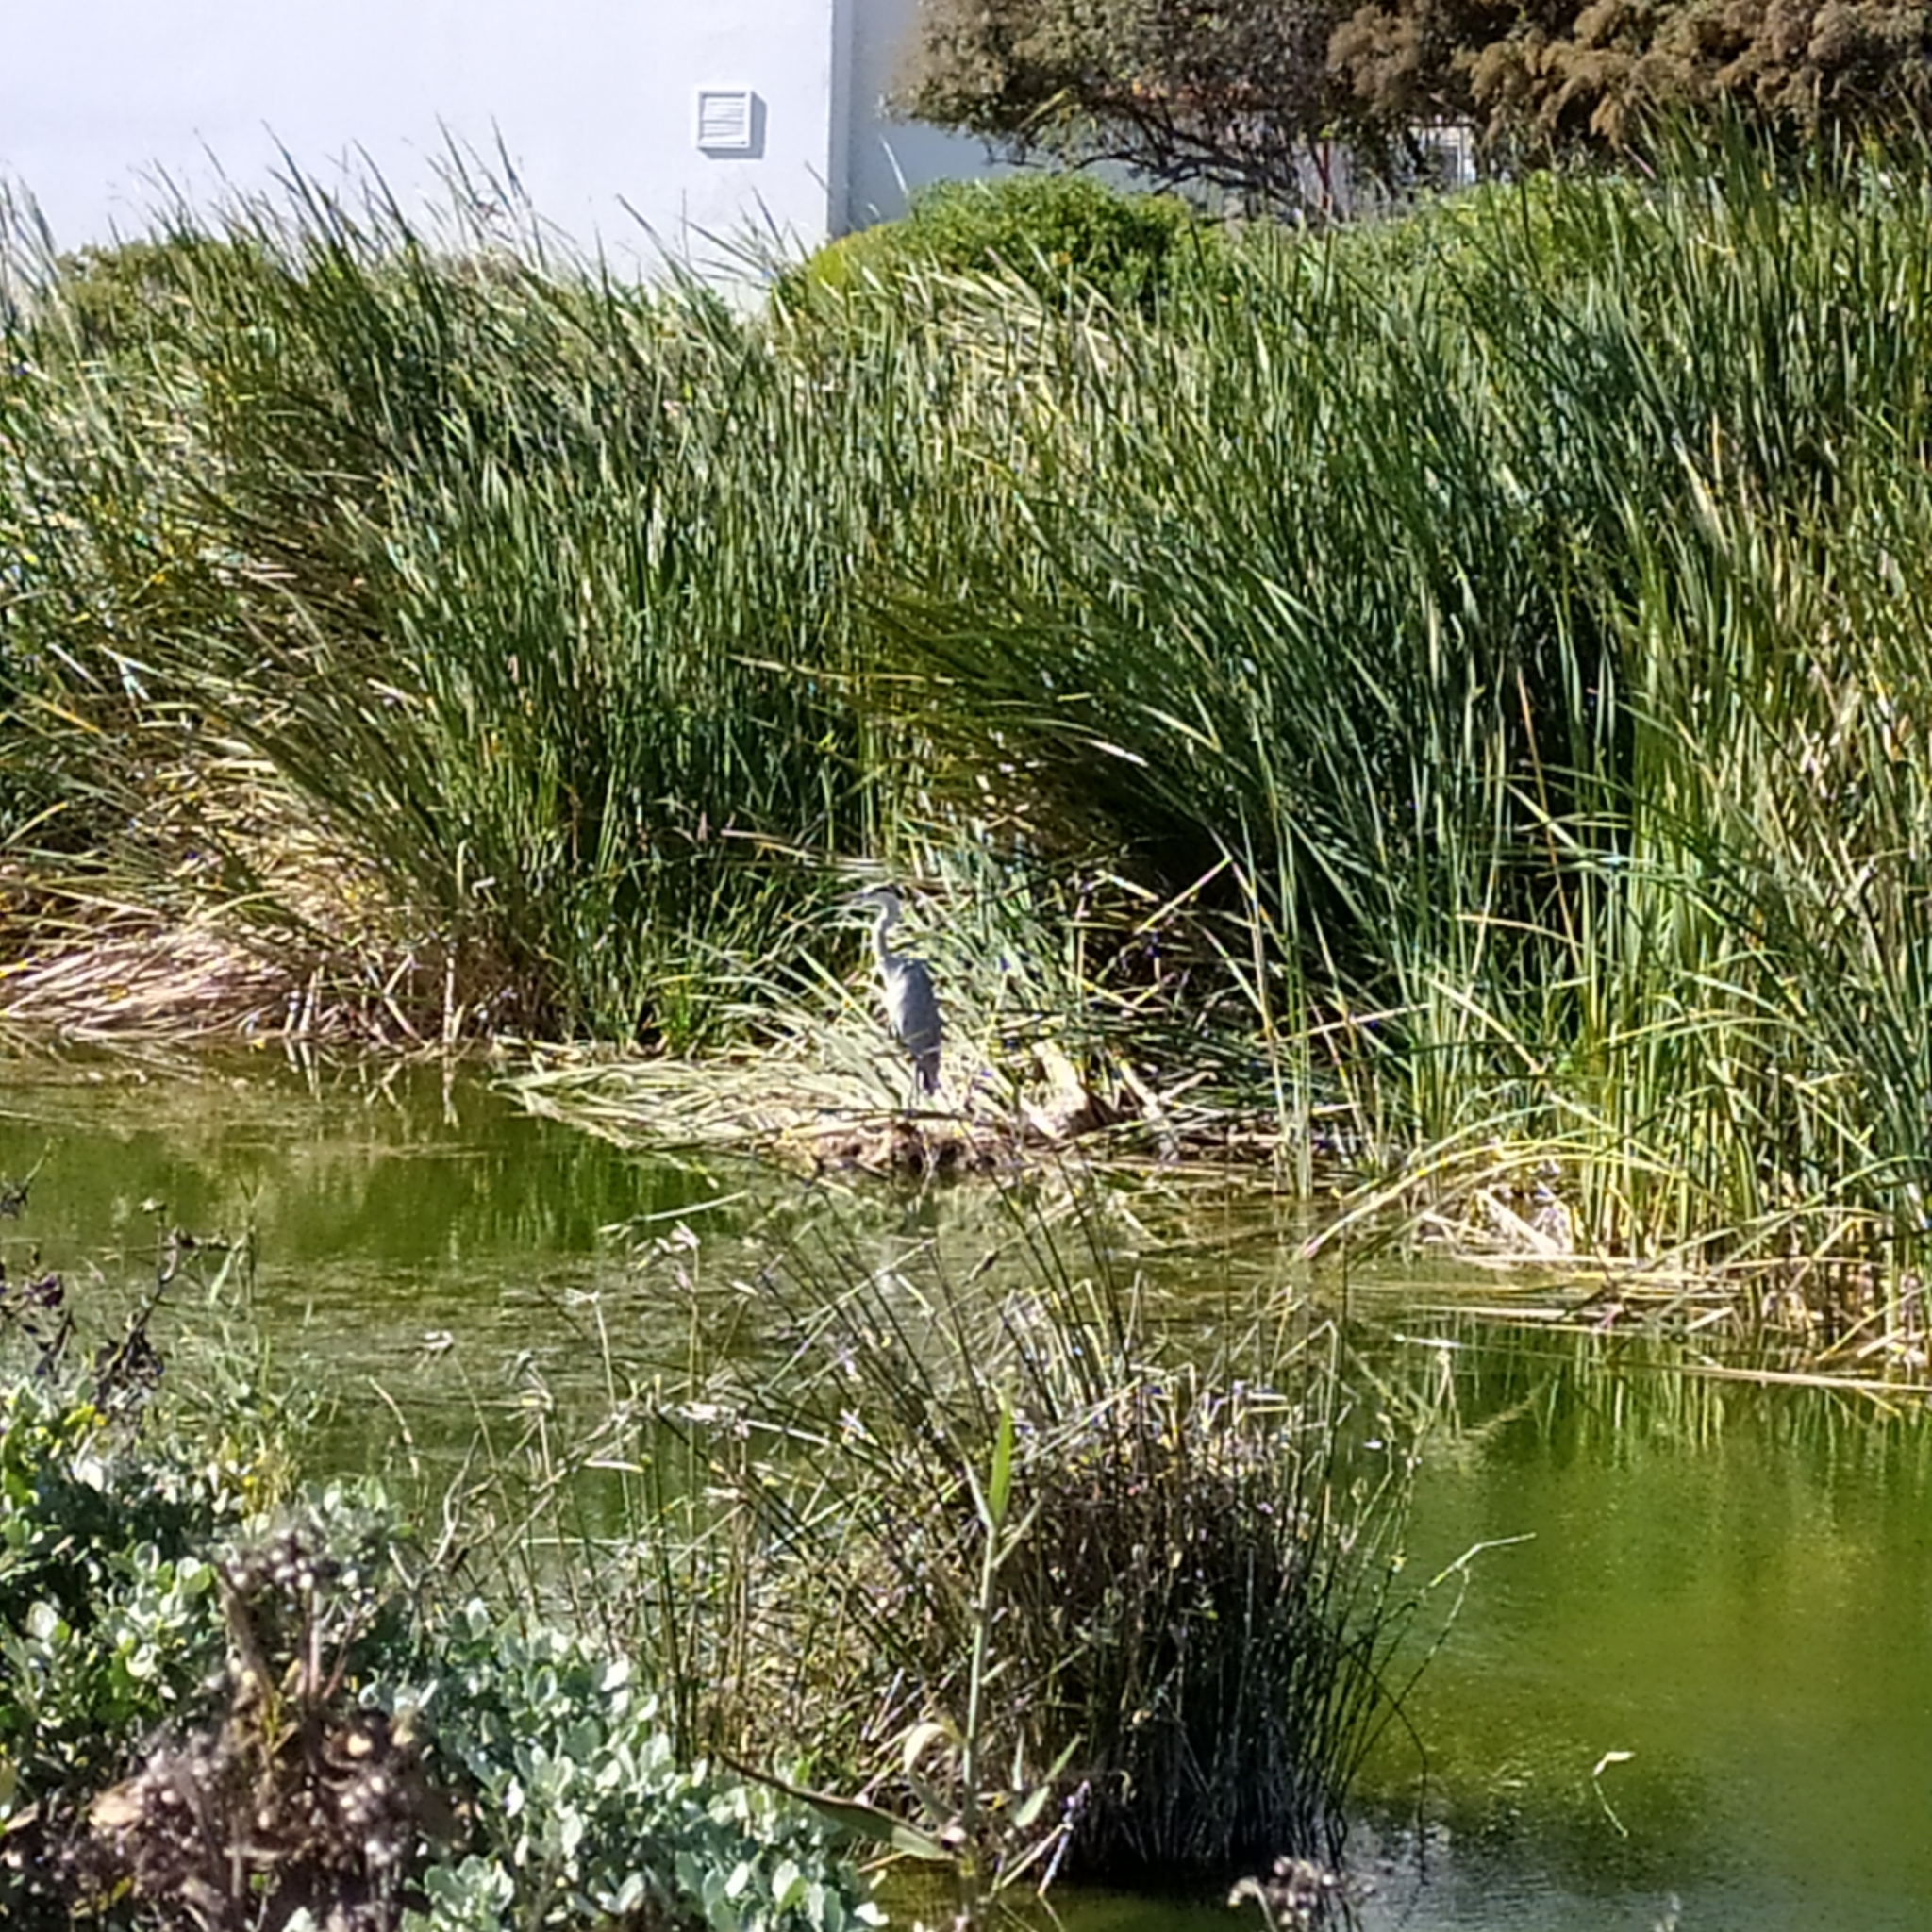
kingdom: Animalia
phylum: Chordata
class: Aves
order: Pelecaniformes
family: Ardeidae
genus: Ardea
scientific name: Ardea cinerea
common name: Grey heron
